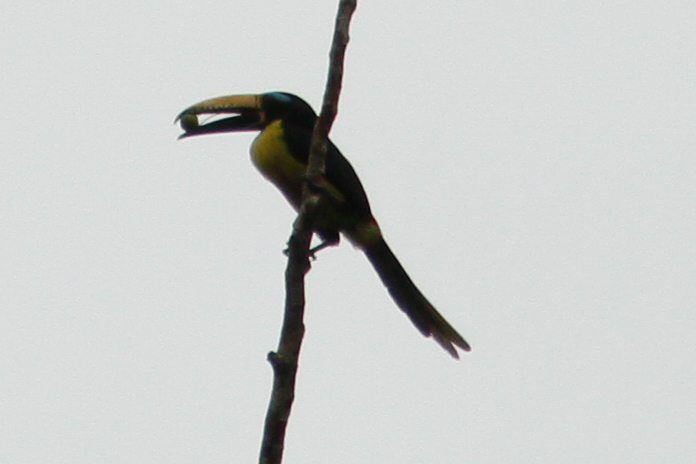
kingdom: Animalia
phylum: Chordata
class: Aves
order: Piciformes
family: Ramphastidae
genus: Pteroglossus
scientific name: Pteroglossus inscriptus
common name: Lettered aracari
